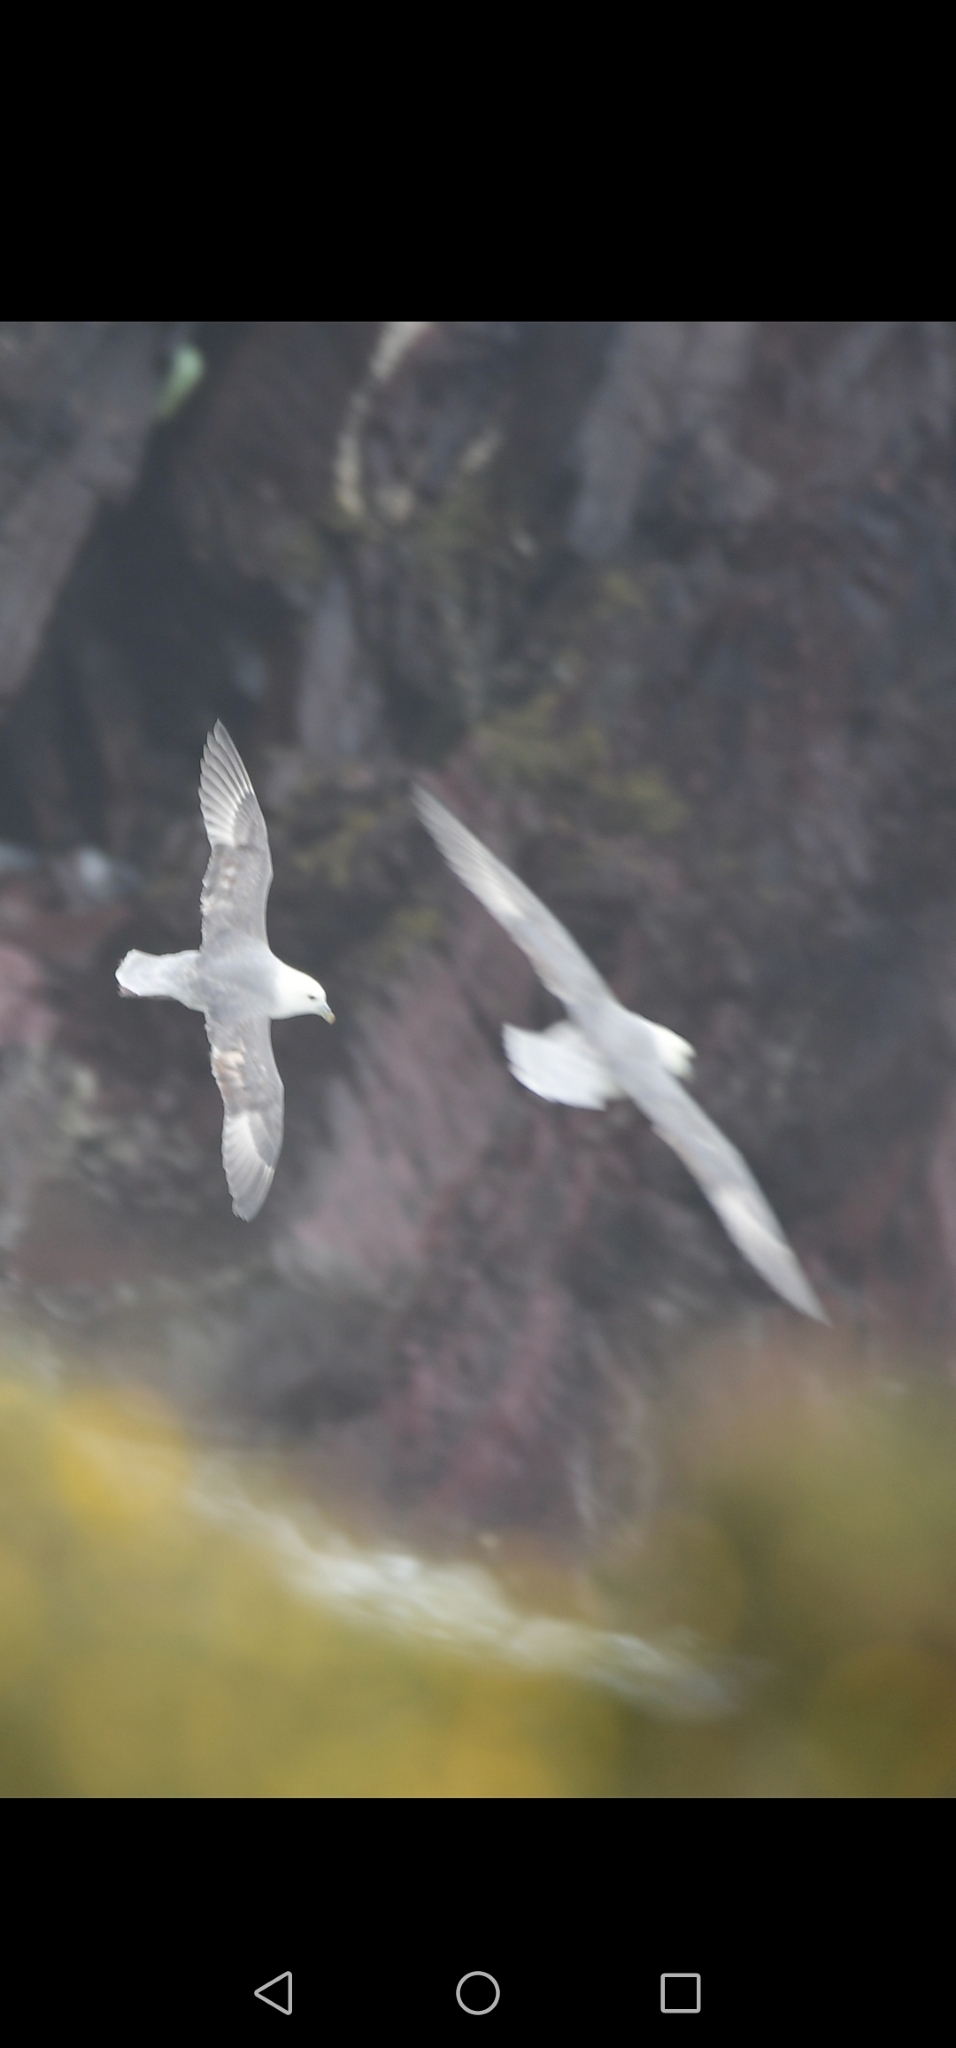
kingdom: Animalia
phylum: Chordata
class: Aves
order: Procellariiformes
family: Procellariidae
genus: Fulmarus
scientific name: Fulmarus glacialis
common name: Northern fulmar
